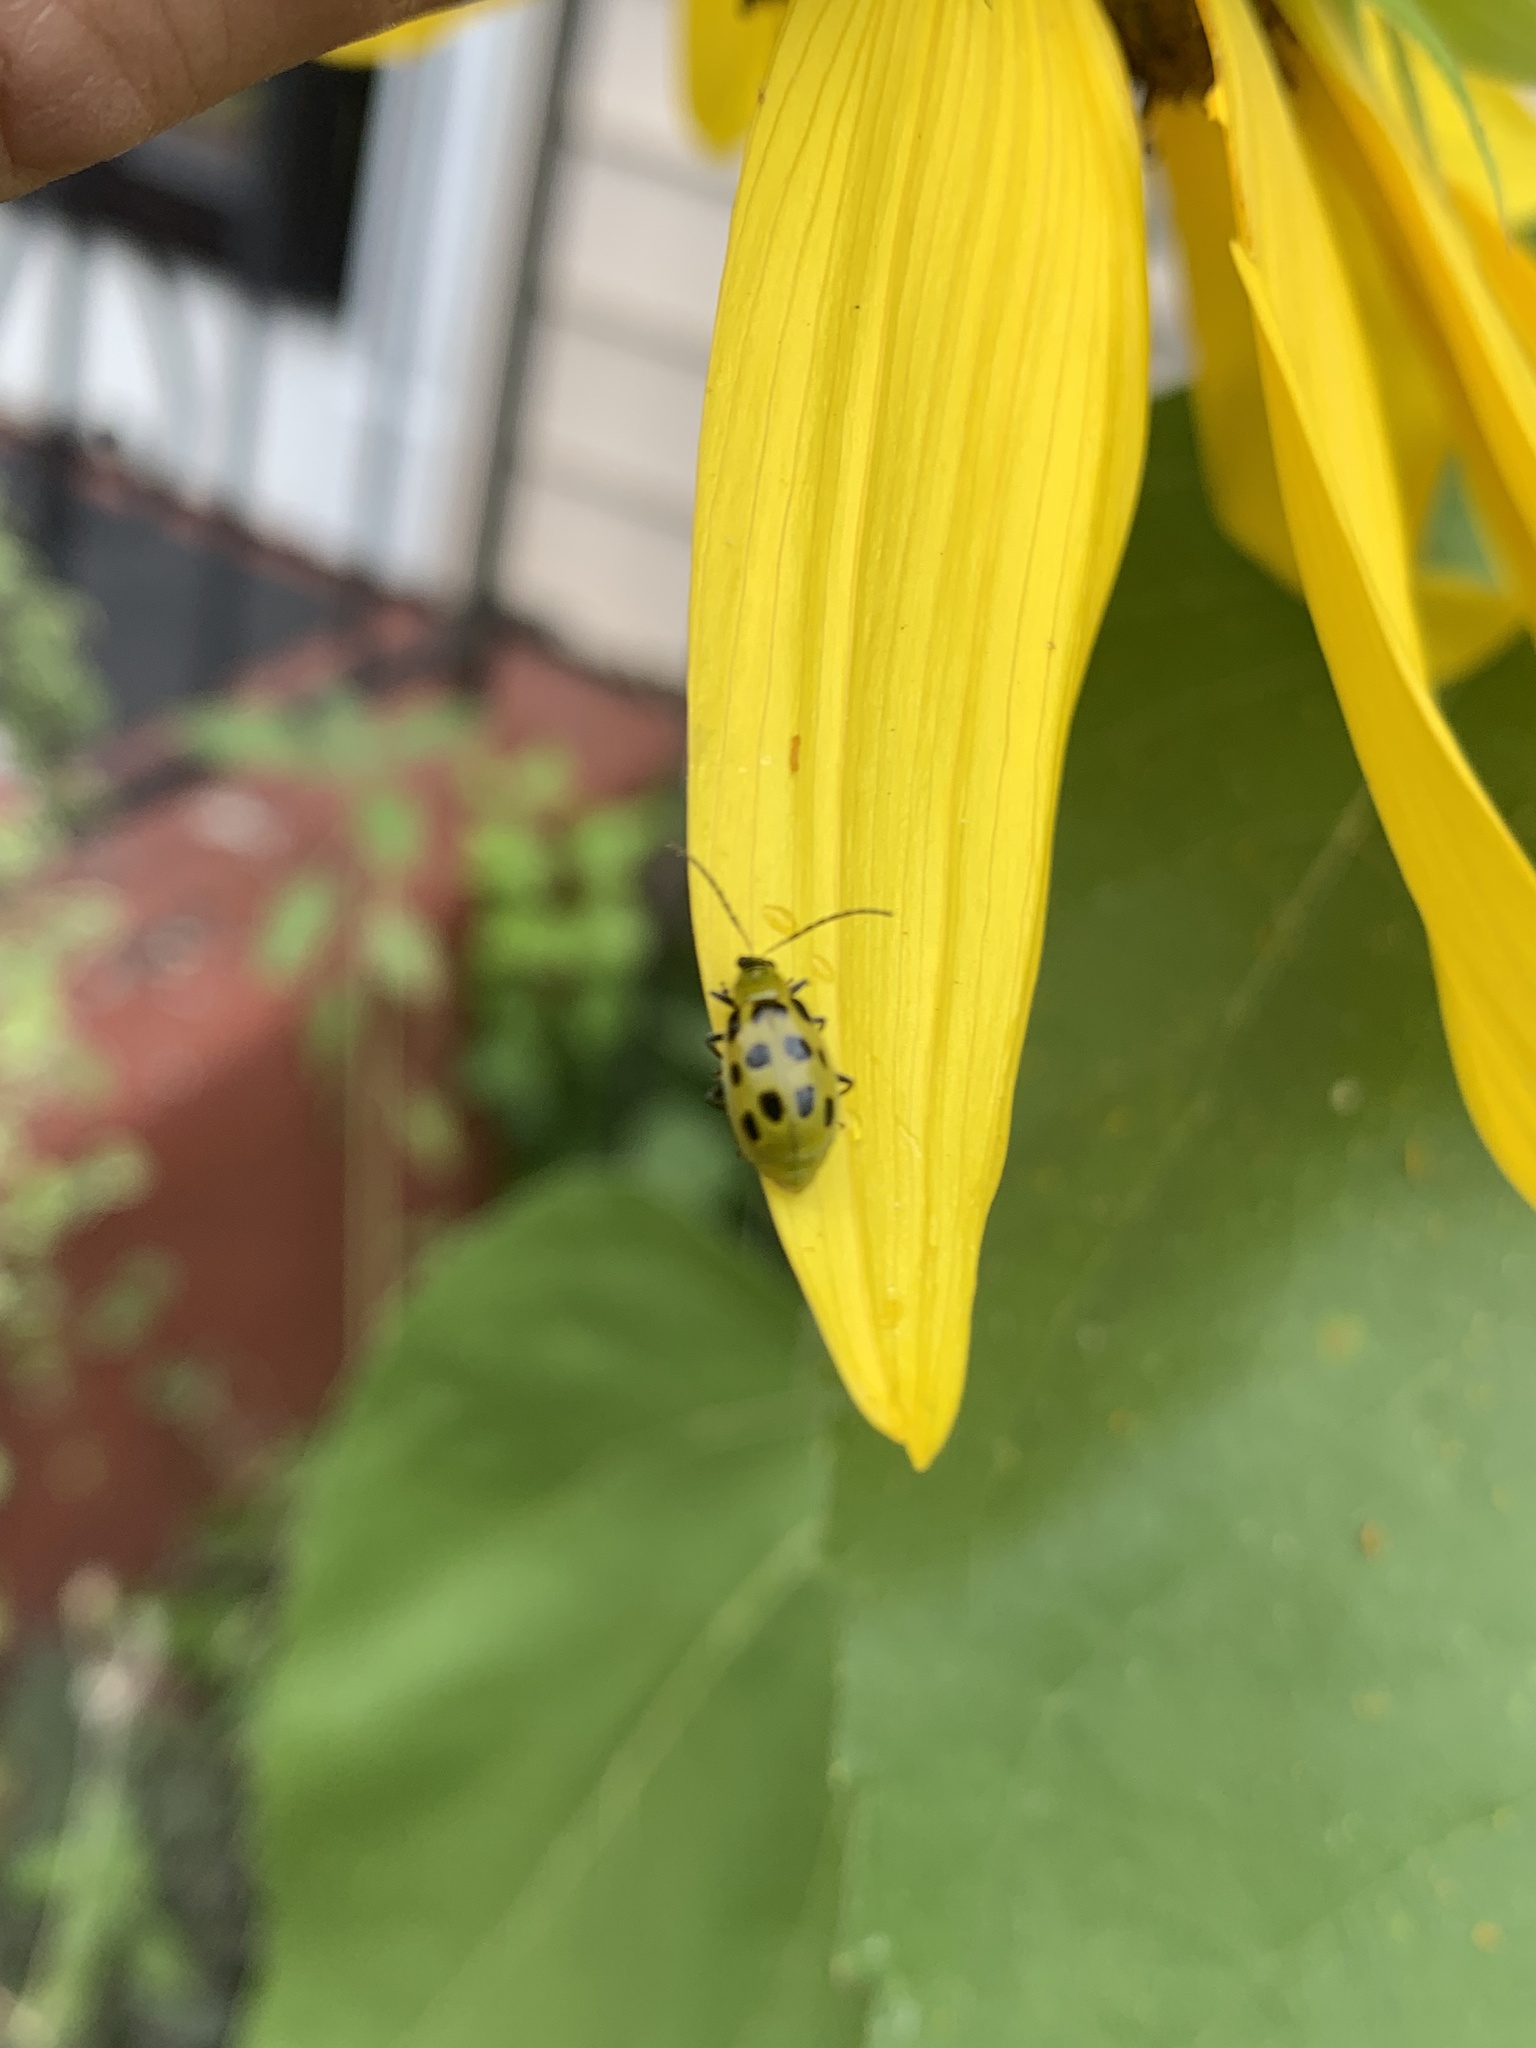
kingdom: Animalia
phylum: Arthropoda
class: Insecta
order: Coleoptera
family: Chrysomelidae
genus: Diabrotica
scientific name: Diabrotica undecimpunctata
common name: Spotted cucumber beetle
